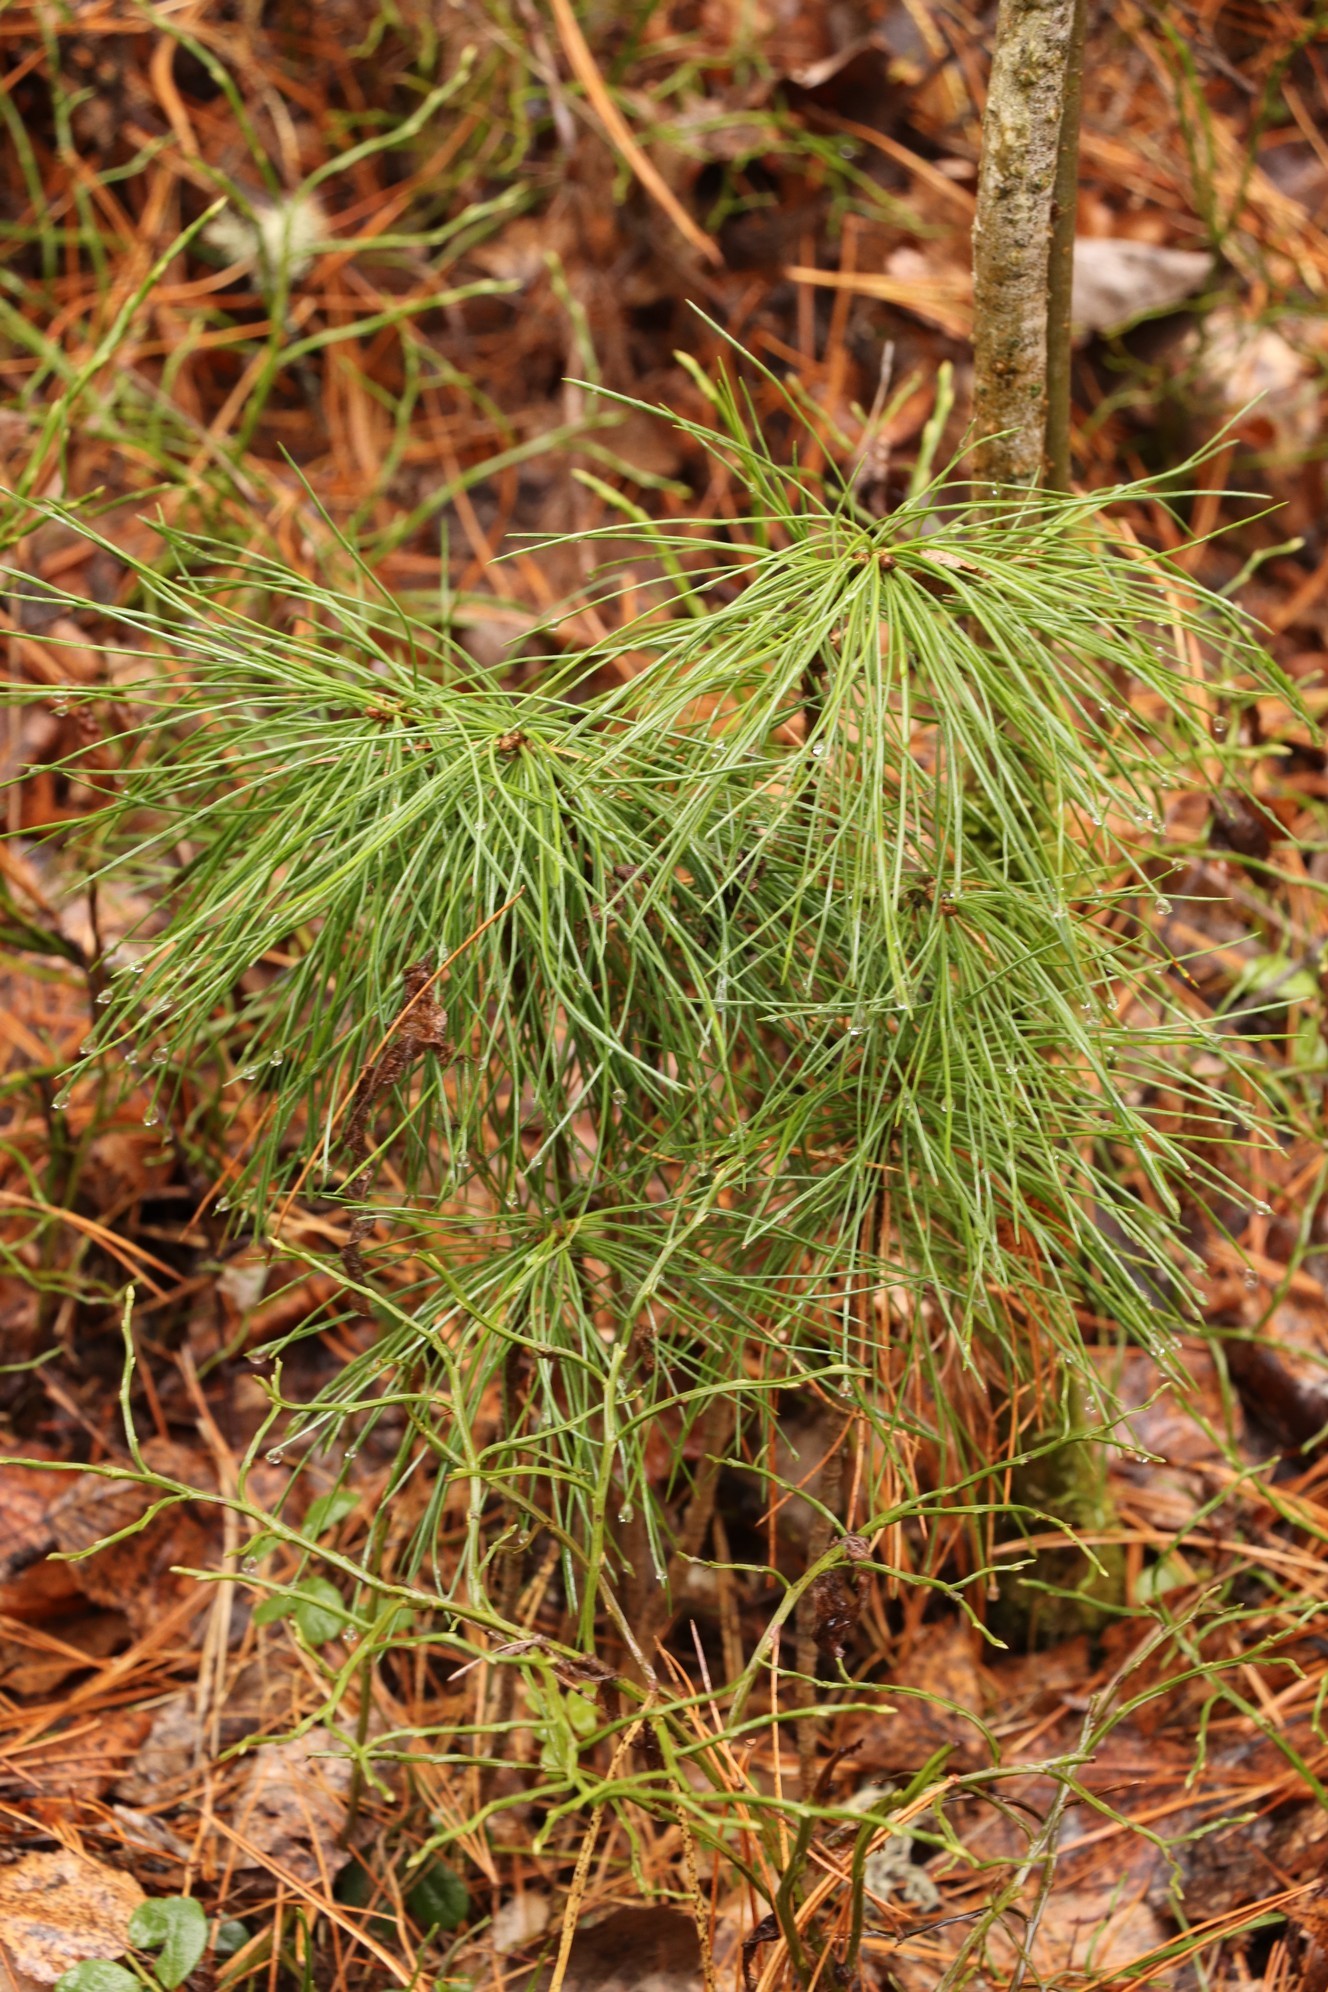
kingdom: Plantae
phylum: Tracheophyta
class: Pinopsida
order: Pinales
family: Pinaceae
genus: Pinus
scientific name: Pinus sibirica
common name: Siberian pine
